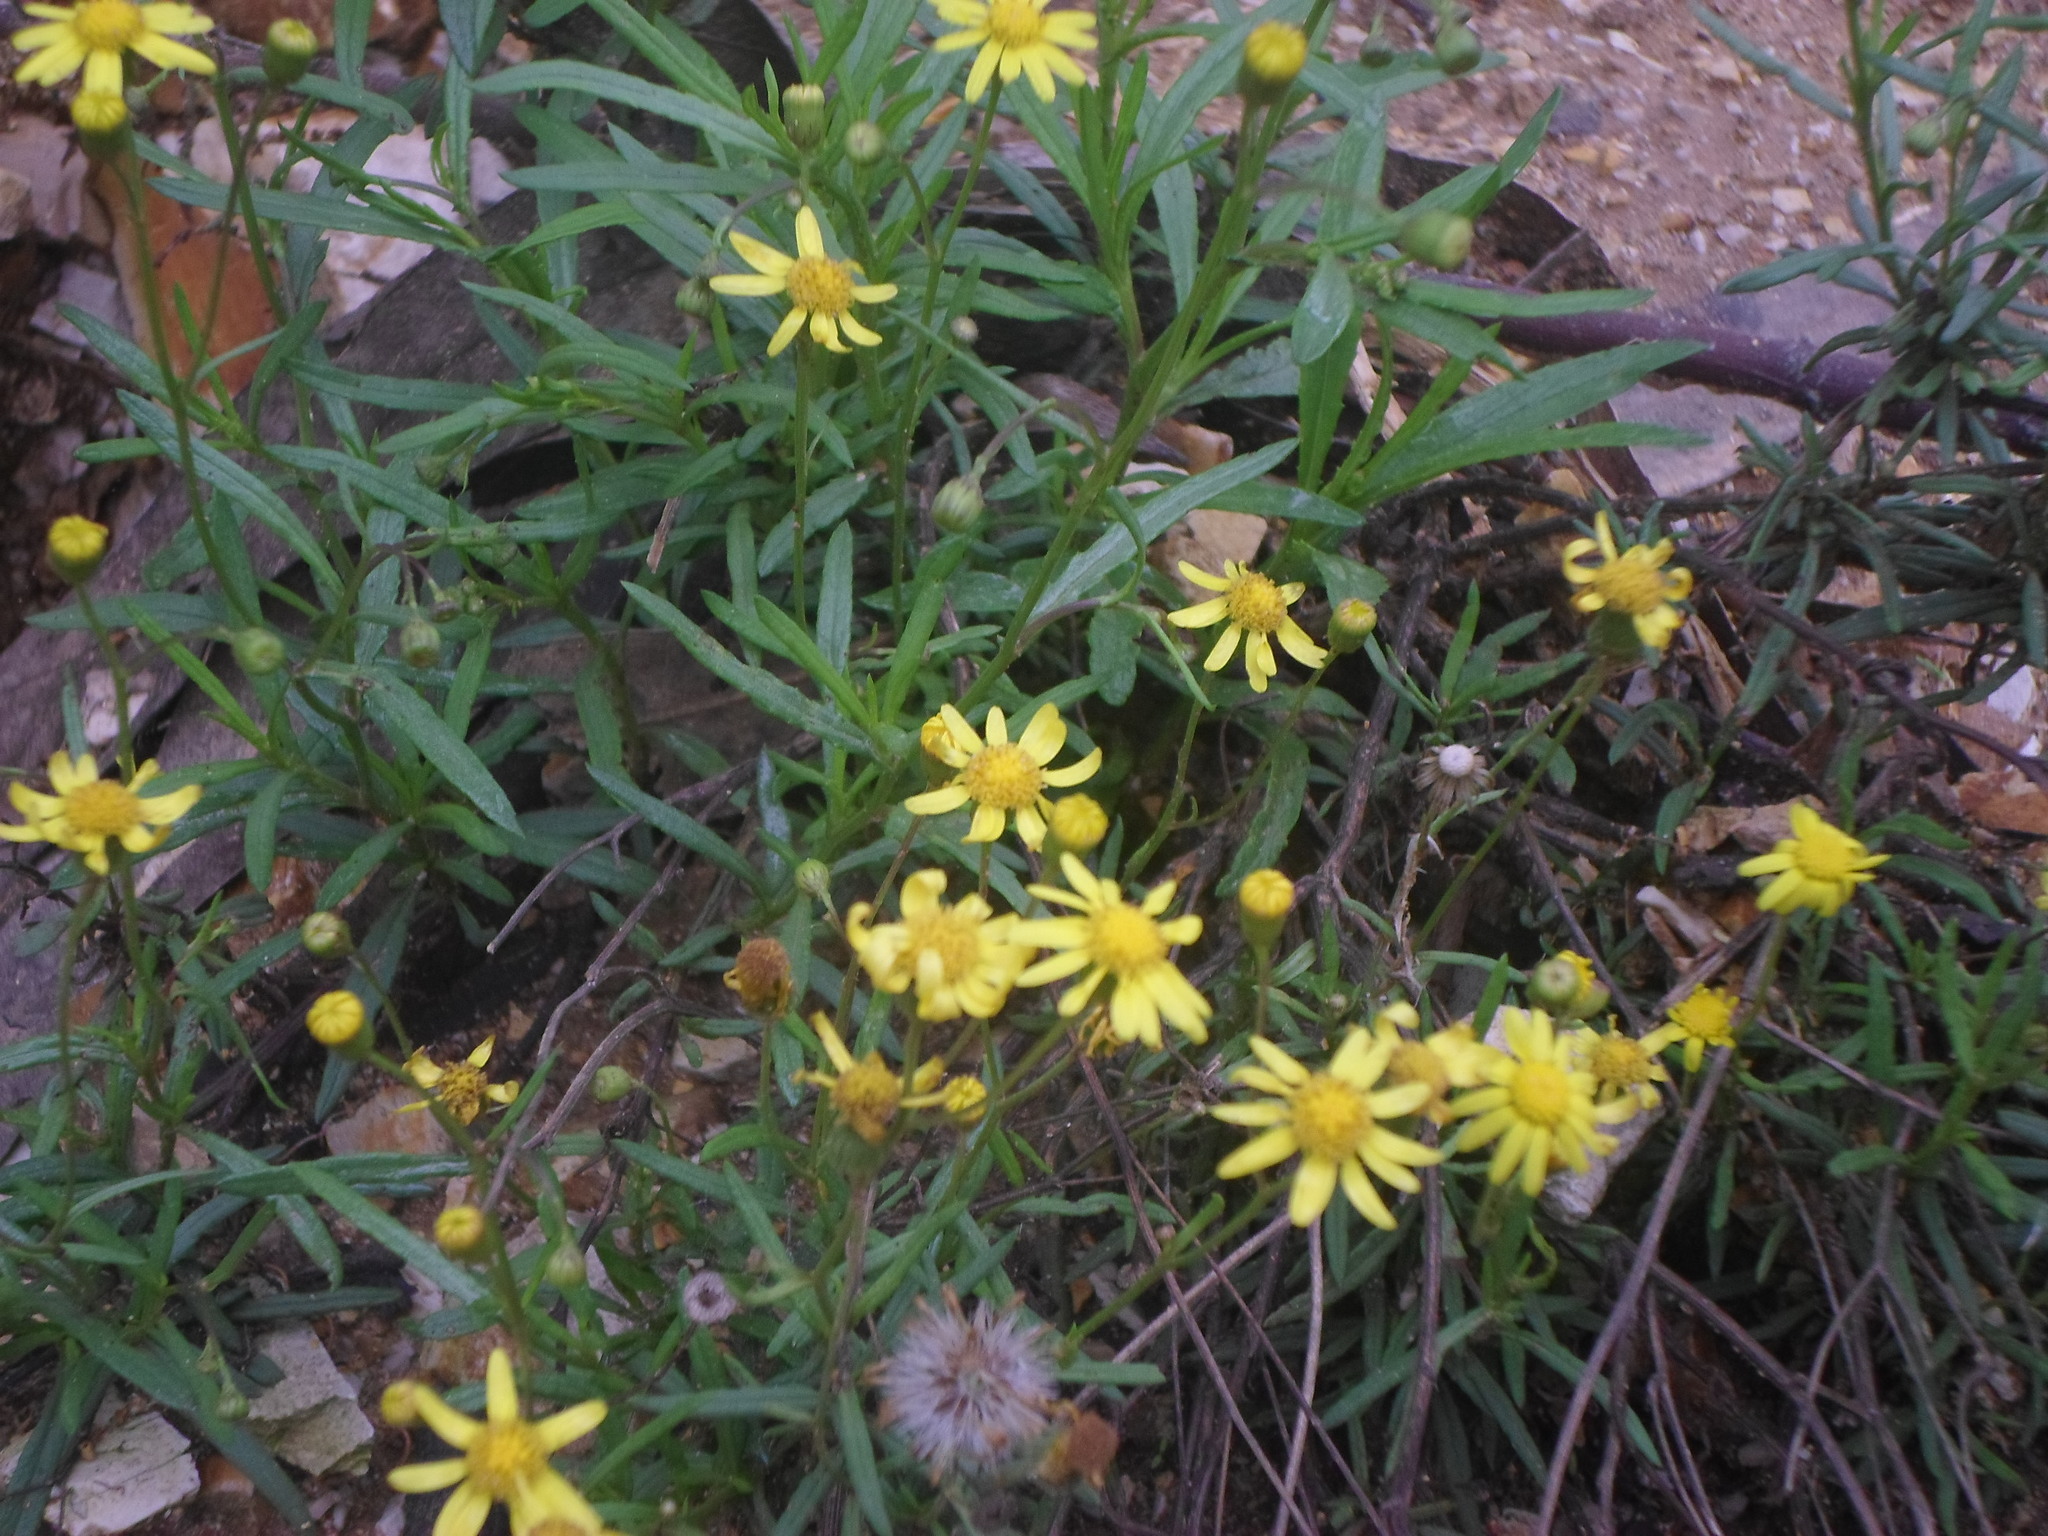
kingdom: Plantae
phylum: Tracheophyta
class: Magnoliopsida
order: Asterales
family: Asteraceae
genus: Senecio
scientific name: Senecio madagascariensis
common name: Madagascar ragwort
